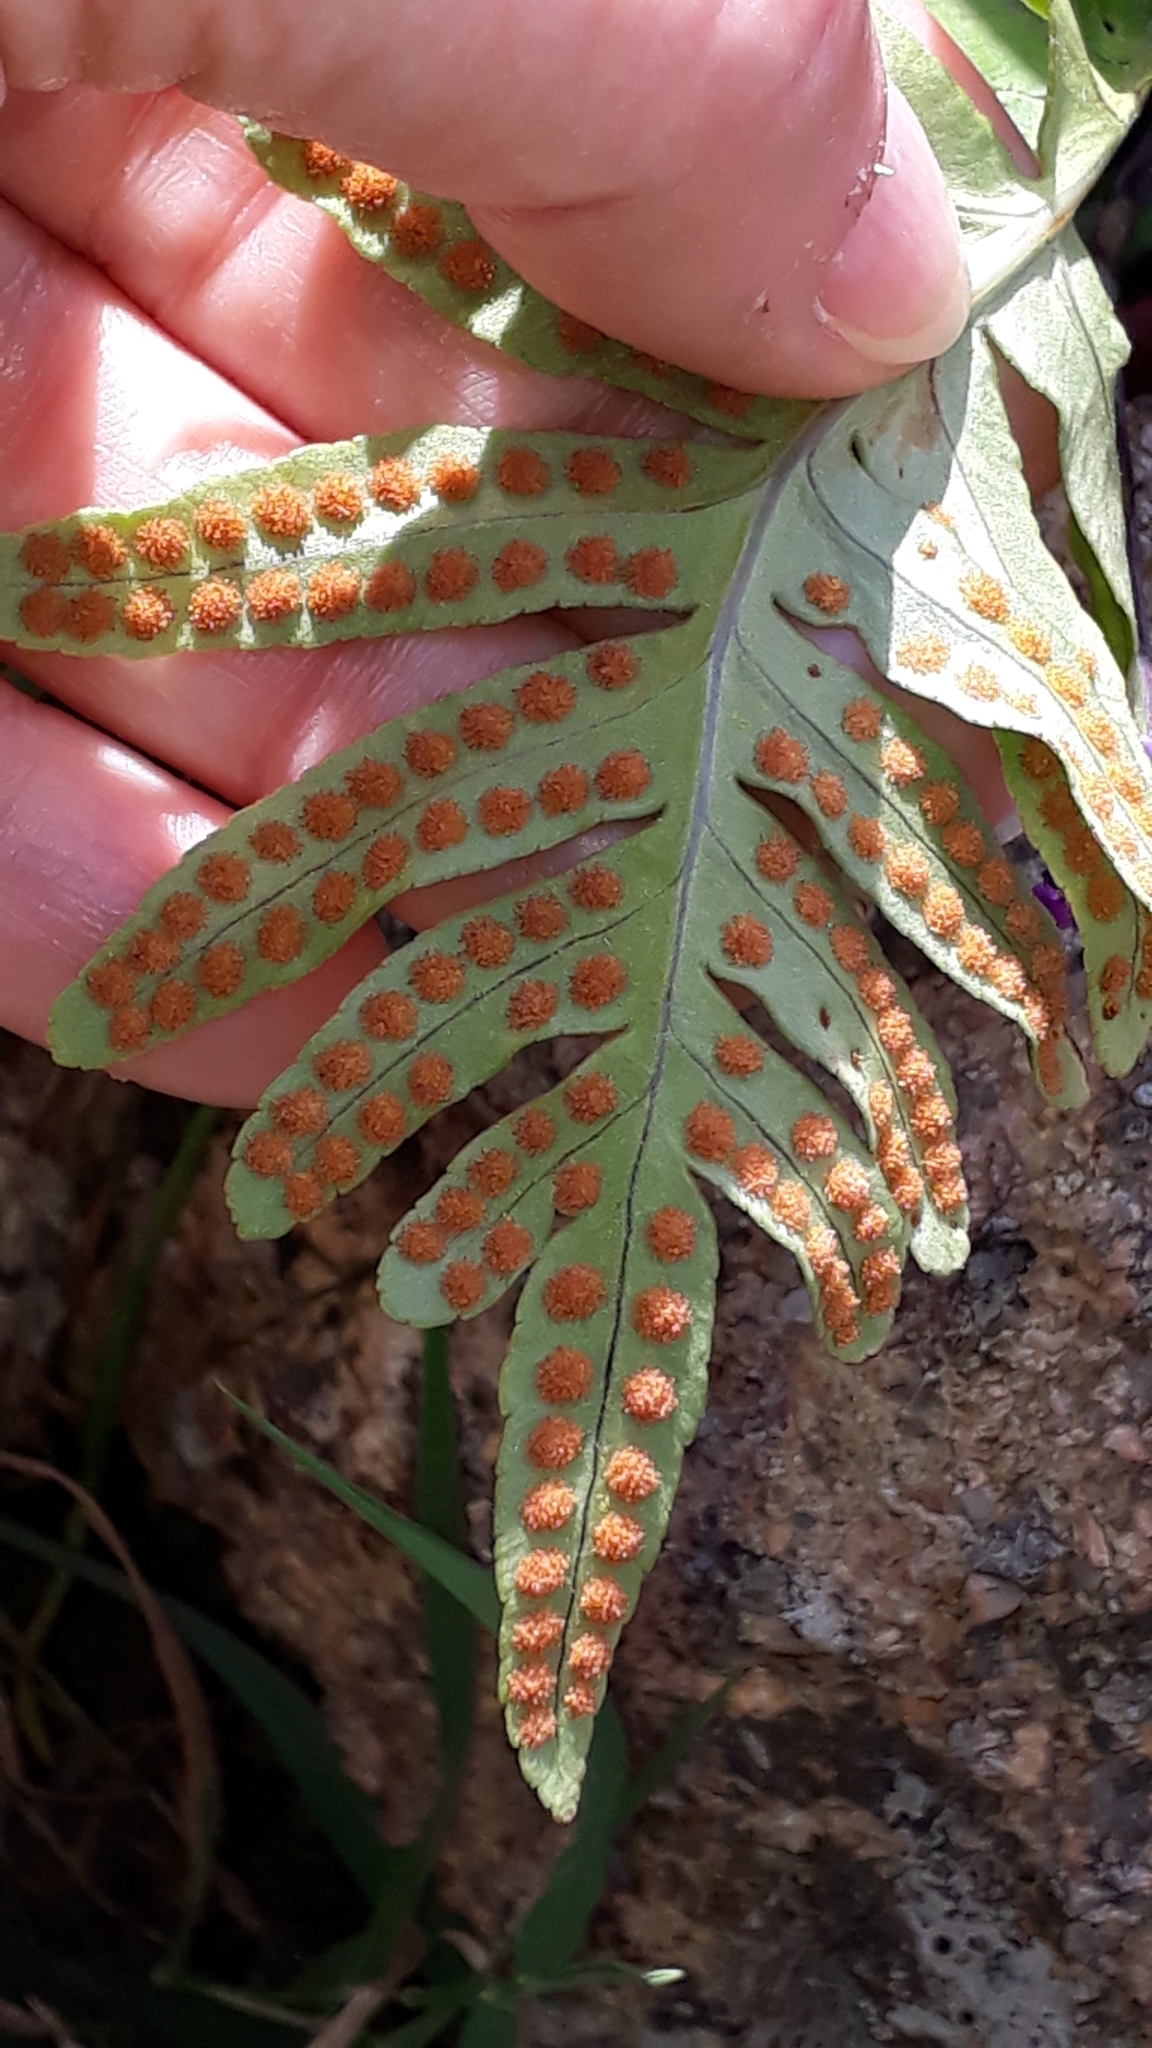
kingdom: Plantae
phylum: Tracheophyta
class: Polypodiopsida
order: Polypodiales
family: Polypodiaceae
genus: Polypodium
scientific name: Polypodium cambricum
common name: Southern polypody
